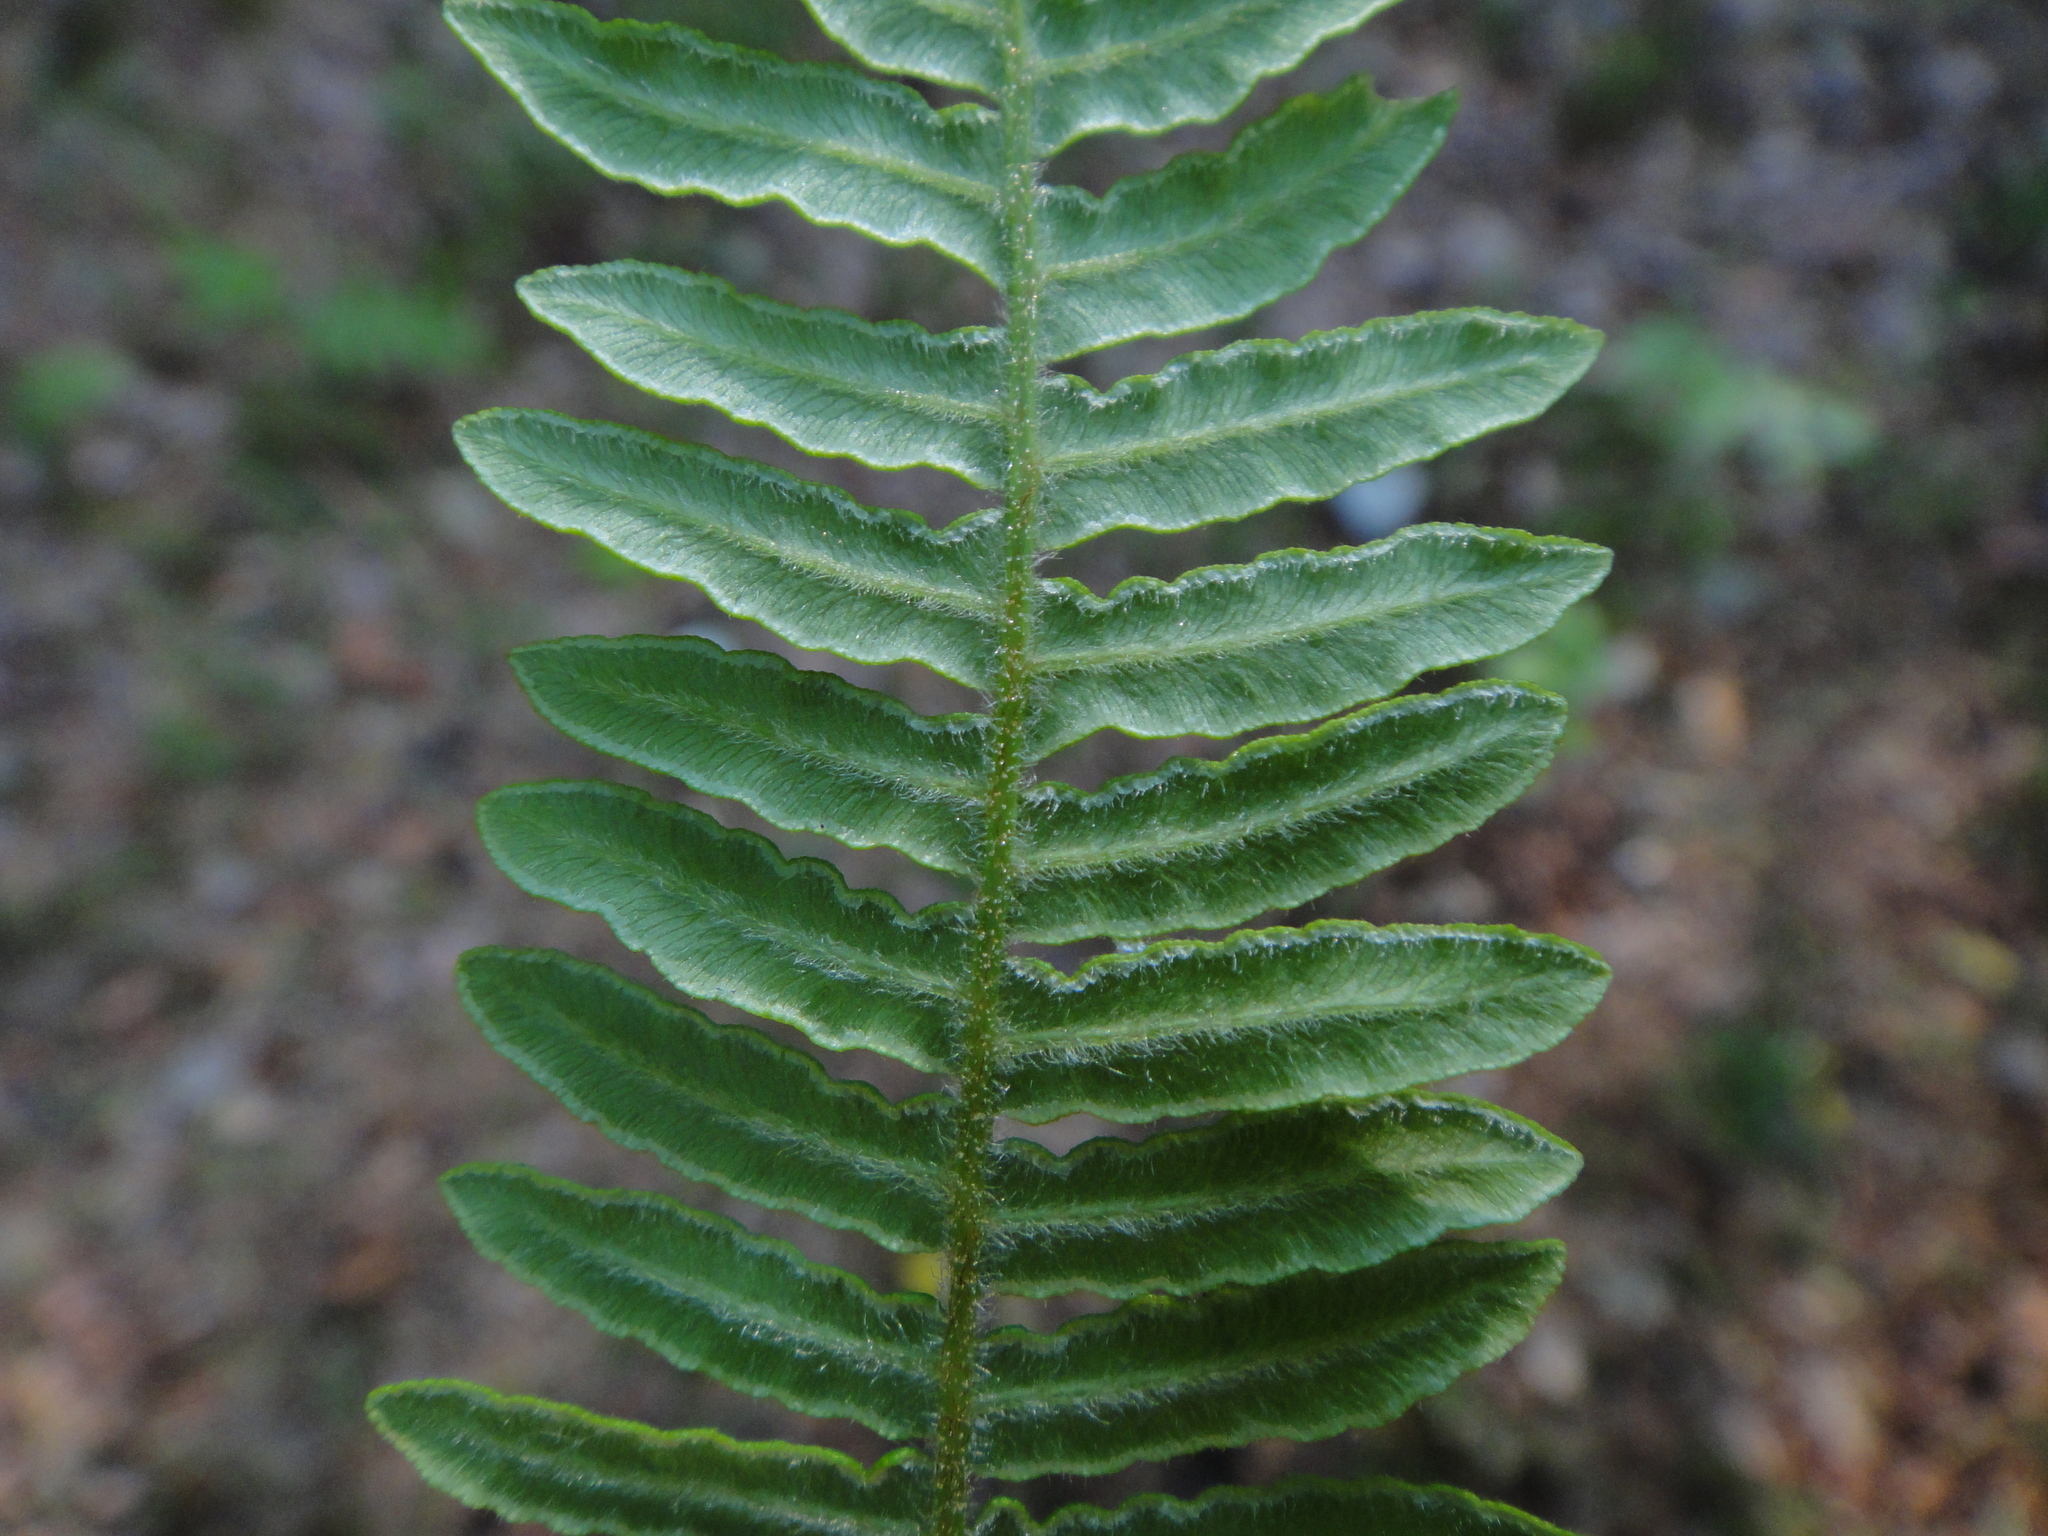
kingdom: Plantae
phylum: Tracheophyta
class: Polypodiopsida
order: Polypodiales
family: Dennstaedtiaceae
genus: Pteridium
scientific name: Pteridium aquilinum
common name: Bracken
